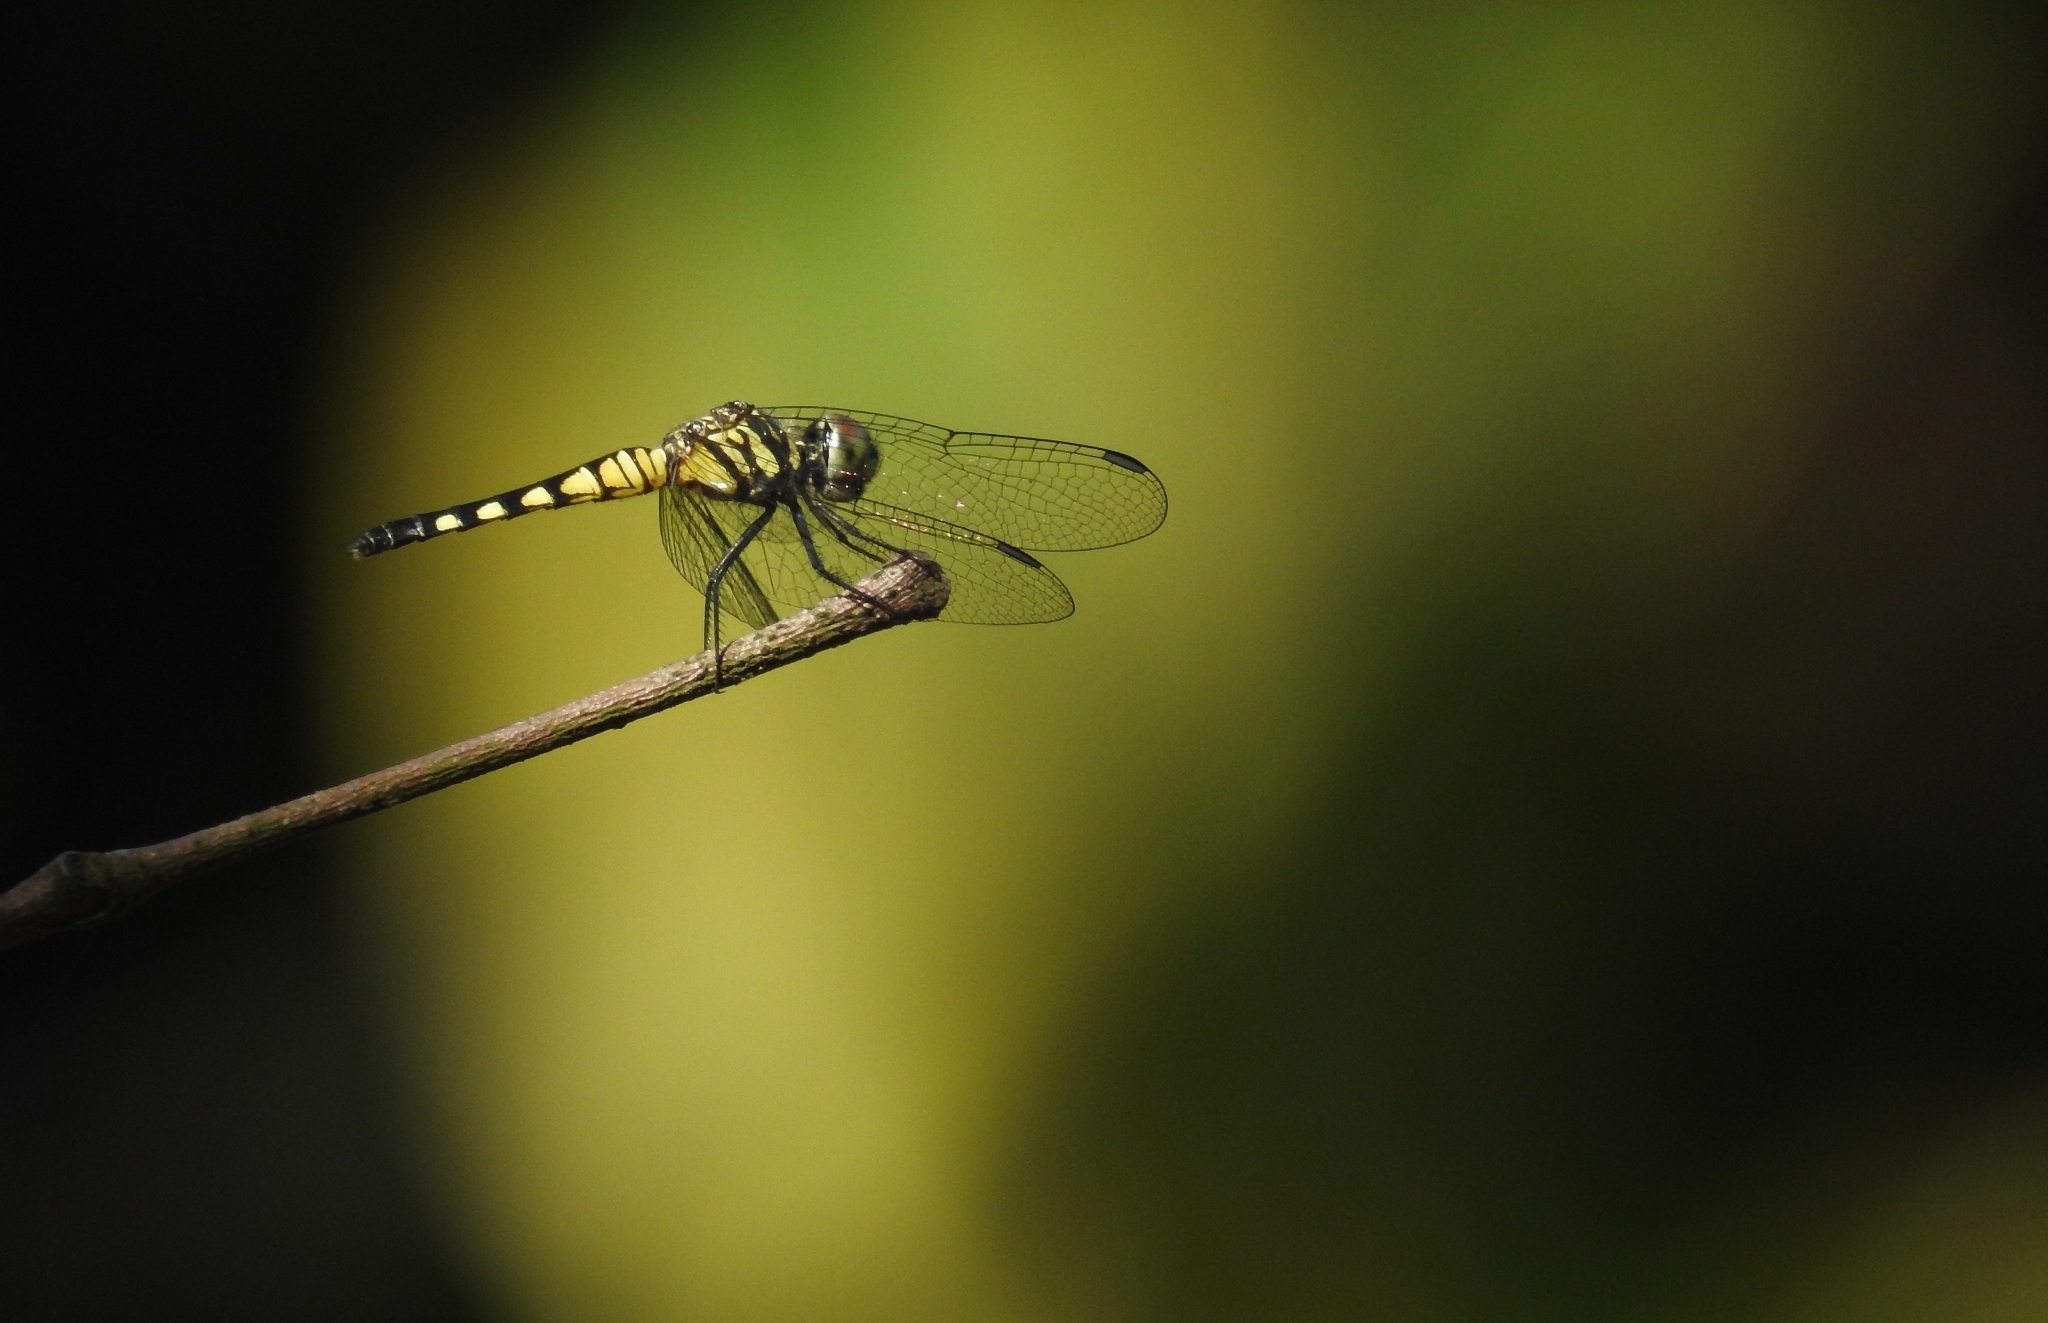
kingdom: Animalia
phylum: Arthropoda
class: Insecta
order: Odonata
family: Libellulidae
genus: Brachydiplax
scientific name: Brachydiplax sobrina
